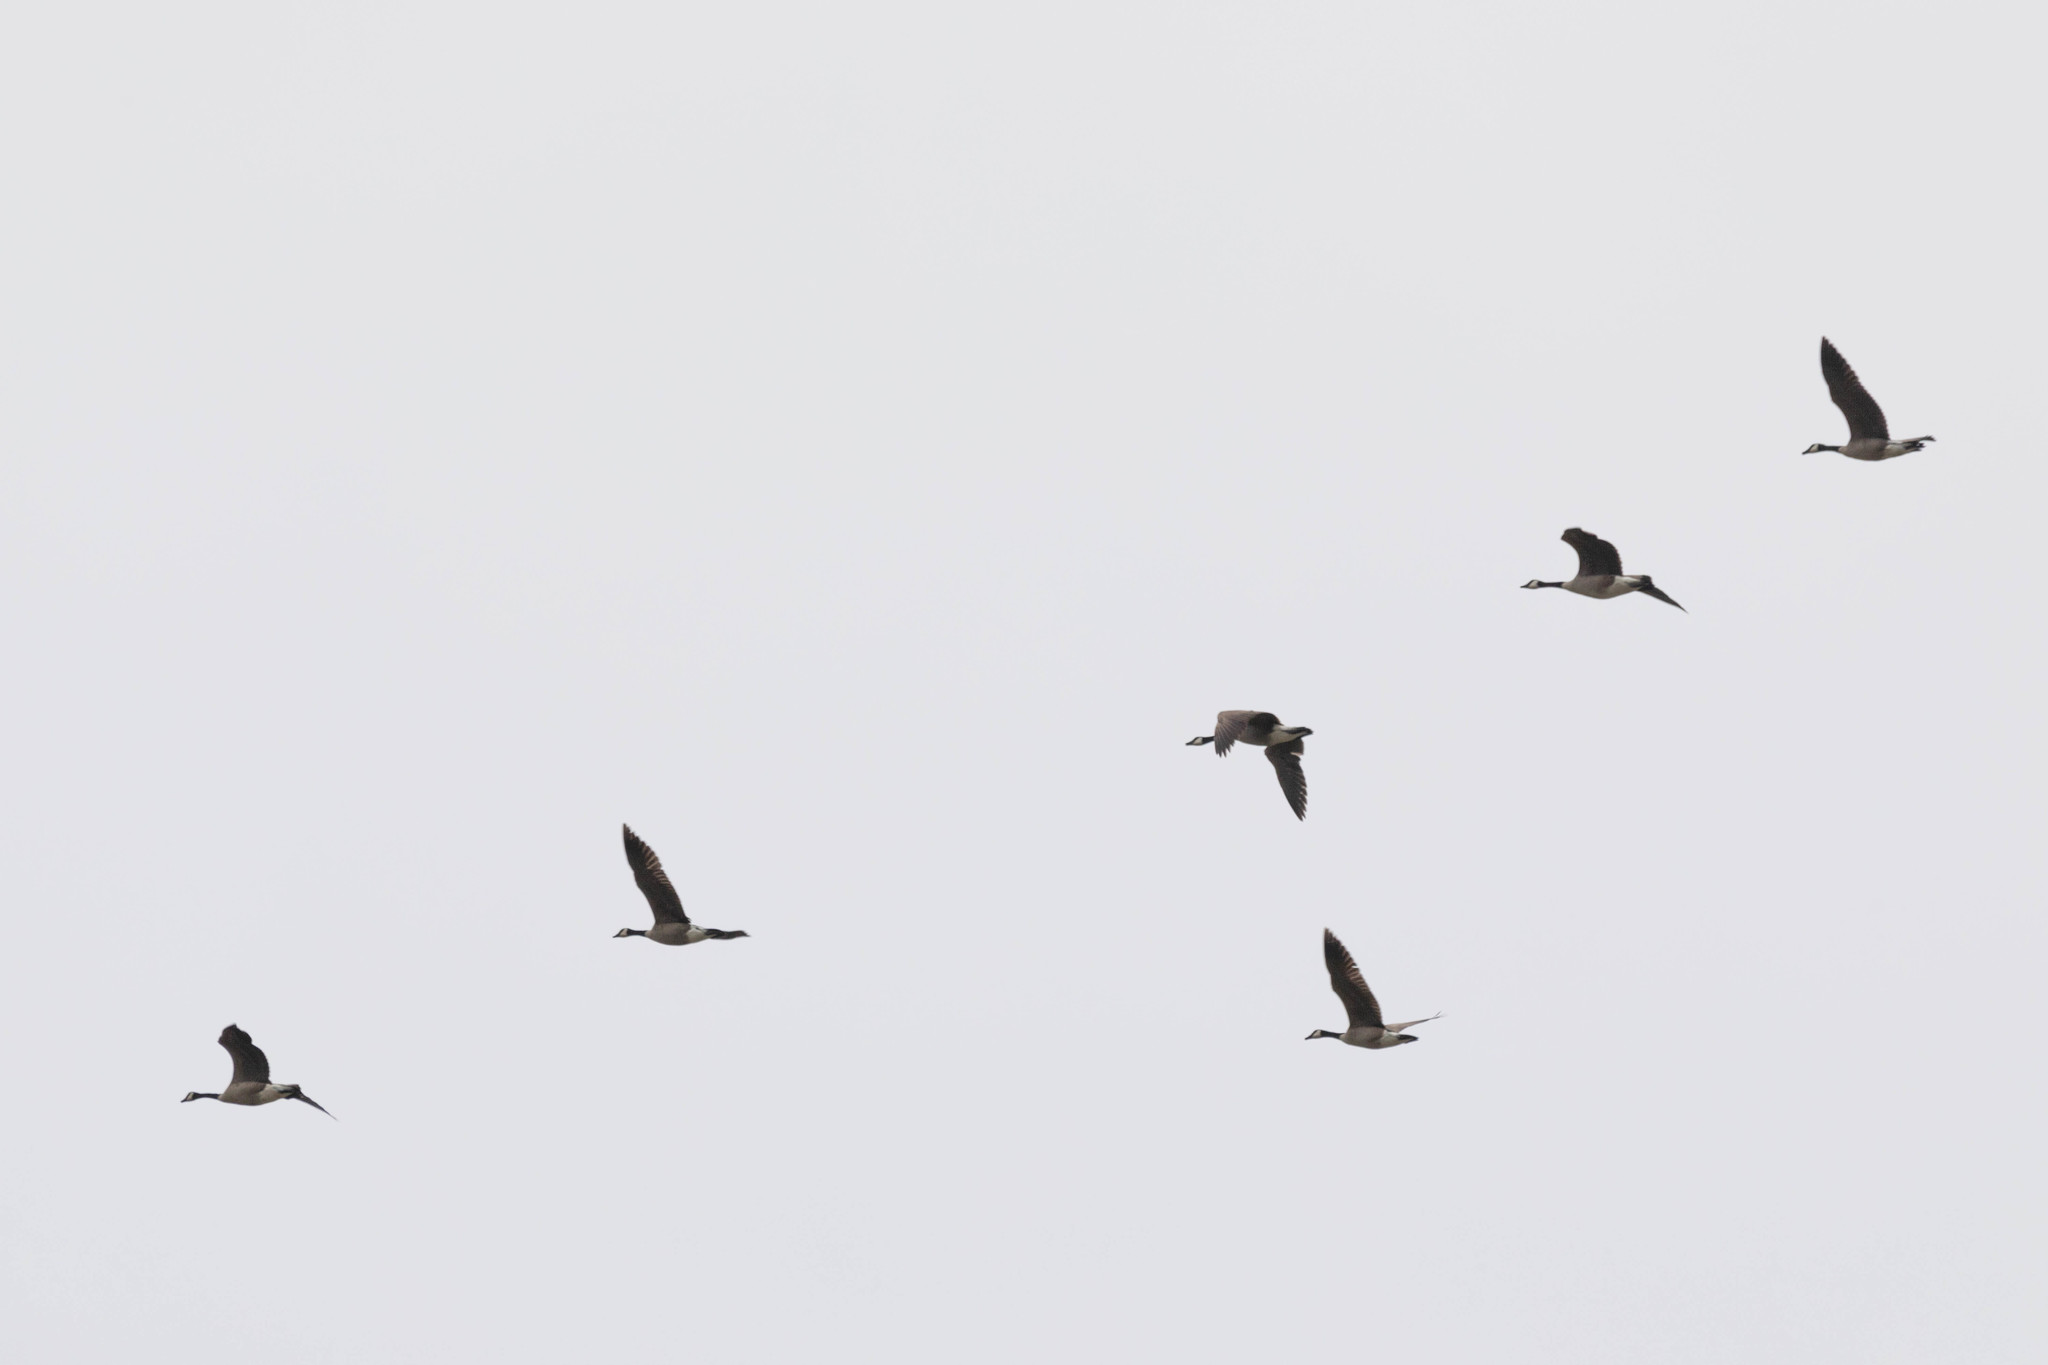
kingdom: Animalia
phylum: Chordata
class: Aves
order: Anseriformes
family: Anatidae
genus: Branta
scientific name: Branta canadensis
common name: Canada goose
